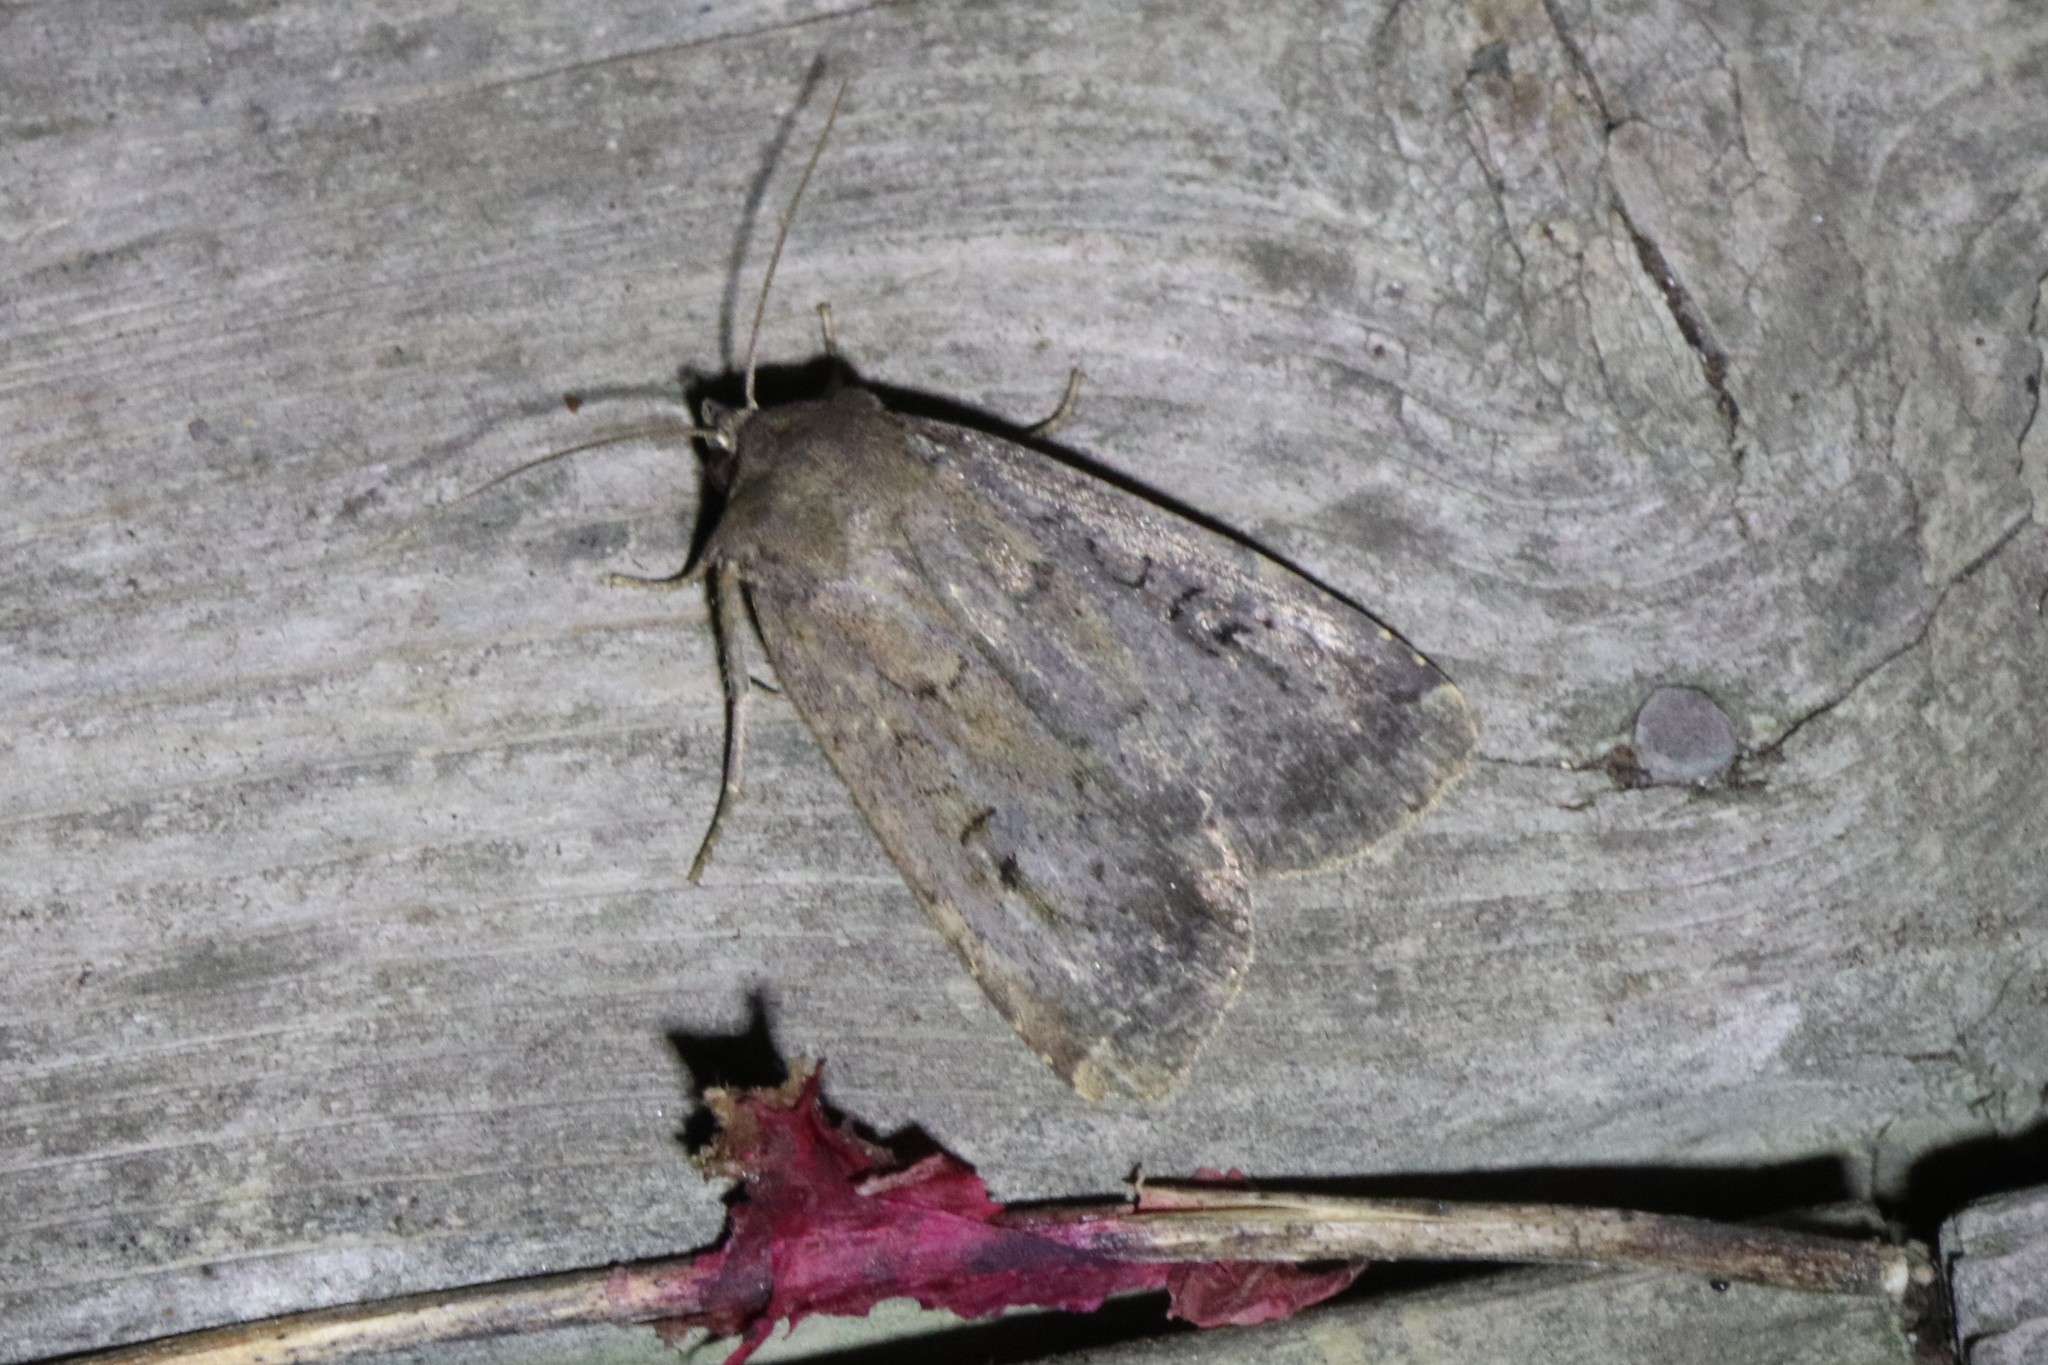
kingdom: Animalia
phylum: Arthropoda
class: Insecta
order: Lepidoptera
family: Noctuidae
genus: Graphiphora
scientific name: Graphiphora augur
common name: Double dart
